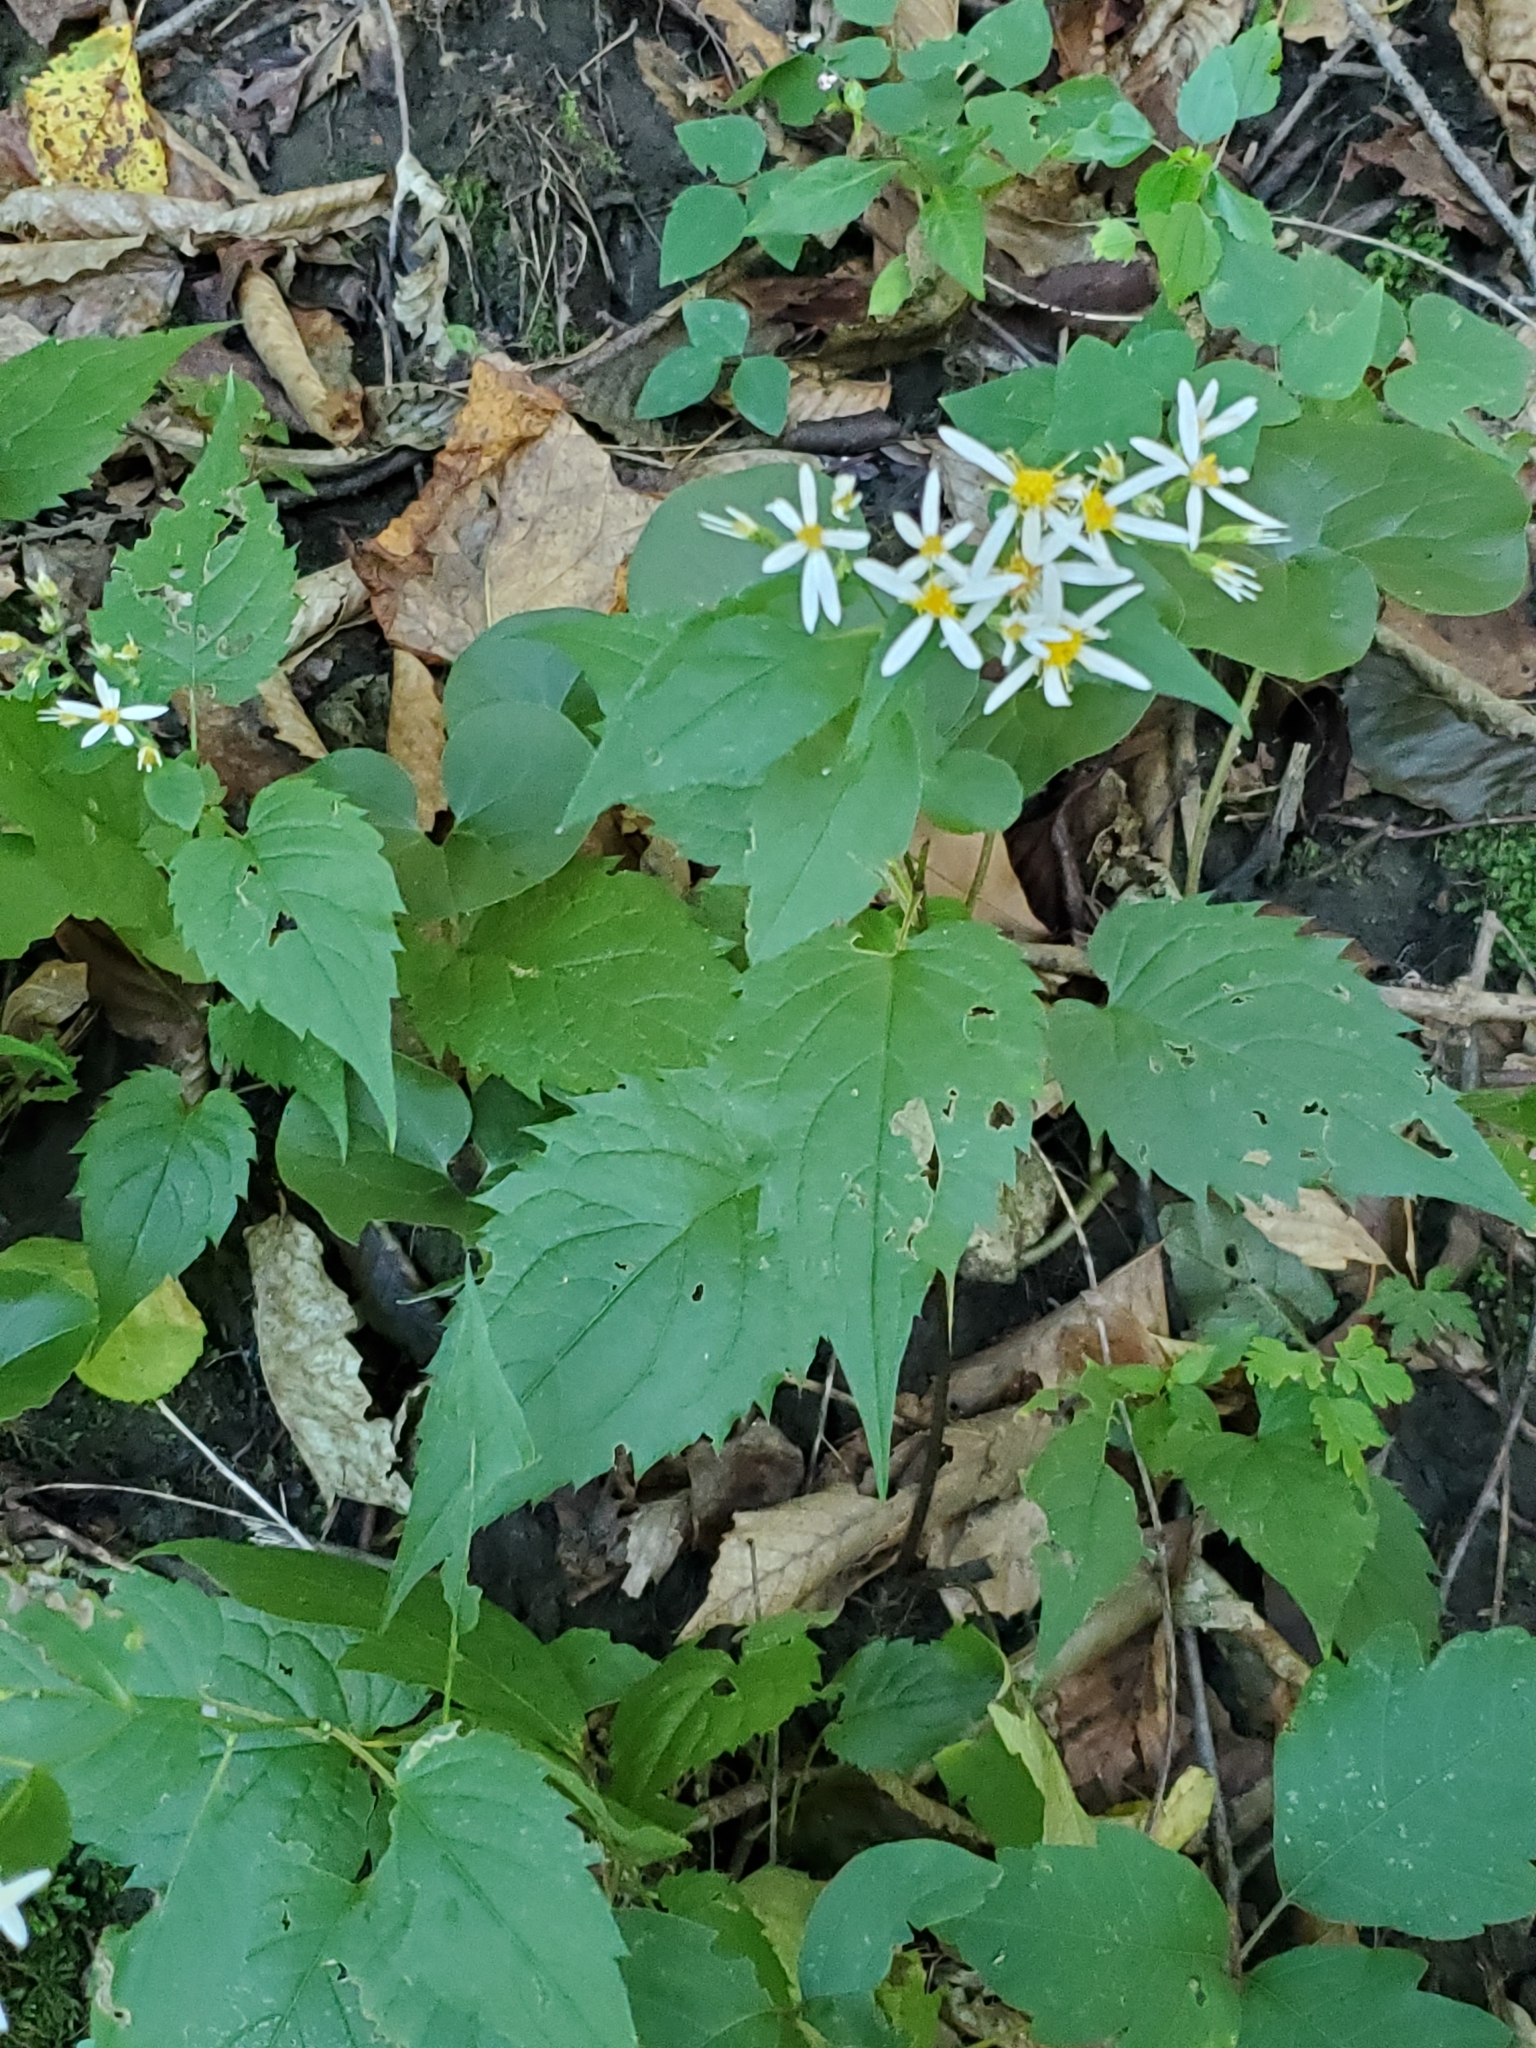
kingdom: Plantae
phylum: Tracheophyta
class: Magnoliopsida
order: Asterales
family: Asteraceae
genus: Eurybia
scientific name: Eurybia divaricata
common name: White wood aster
